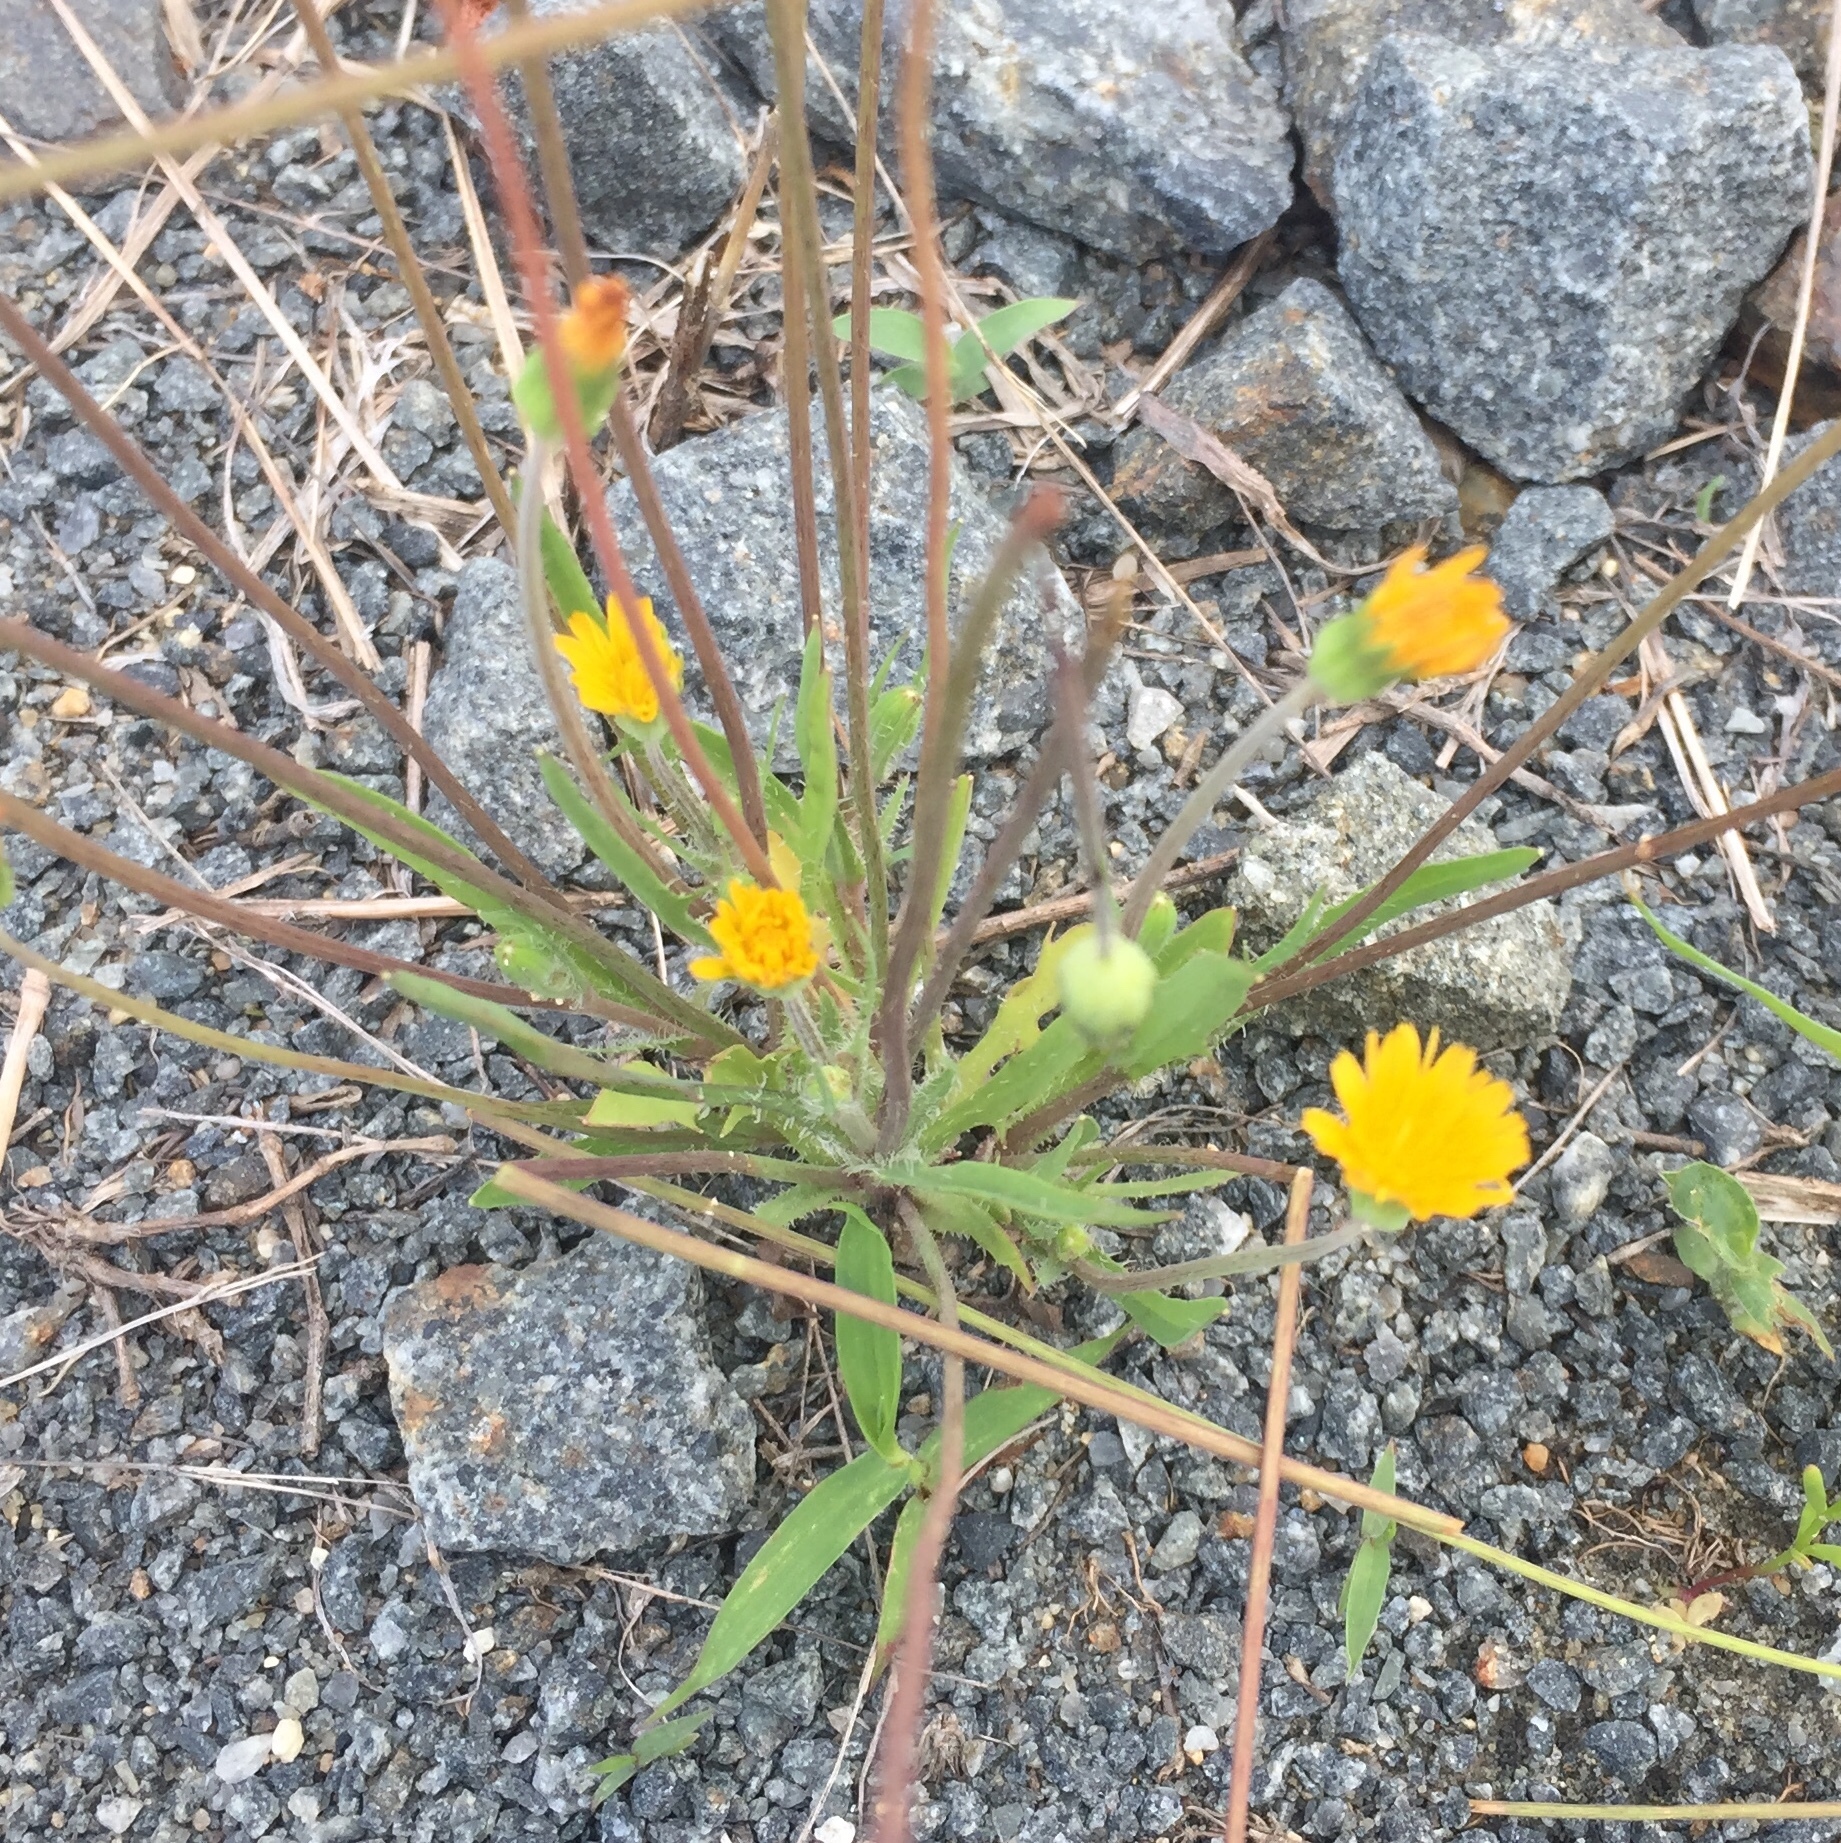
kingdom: Plantae
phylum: Tracheophyta
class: Magnoliopsida
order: Asterales
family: Asteraceae
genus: Krigia
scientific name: Krigia virginica
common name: Virginia dwarf-dandelion
